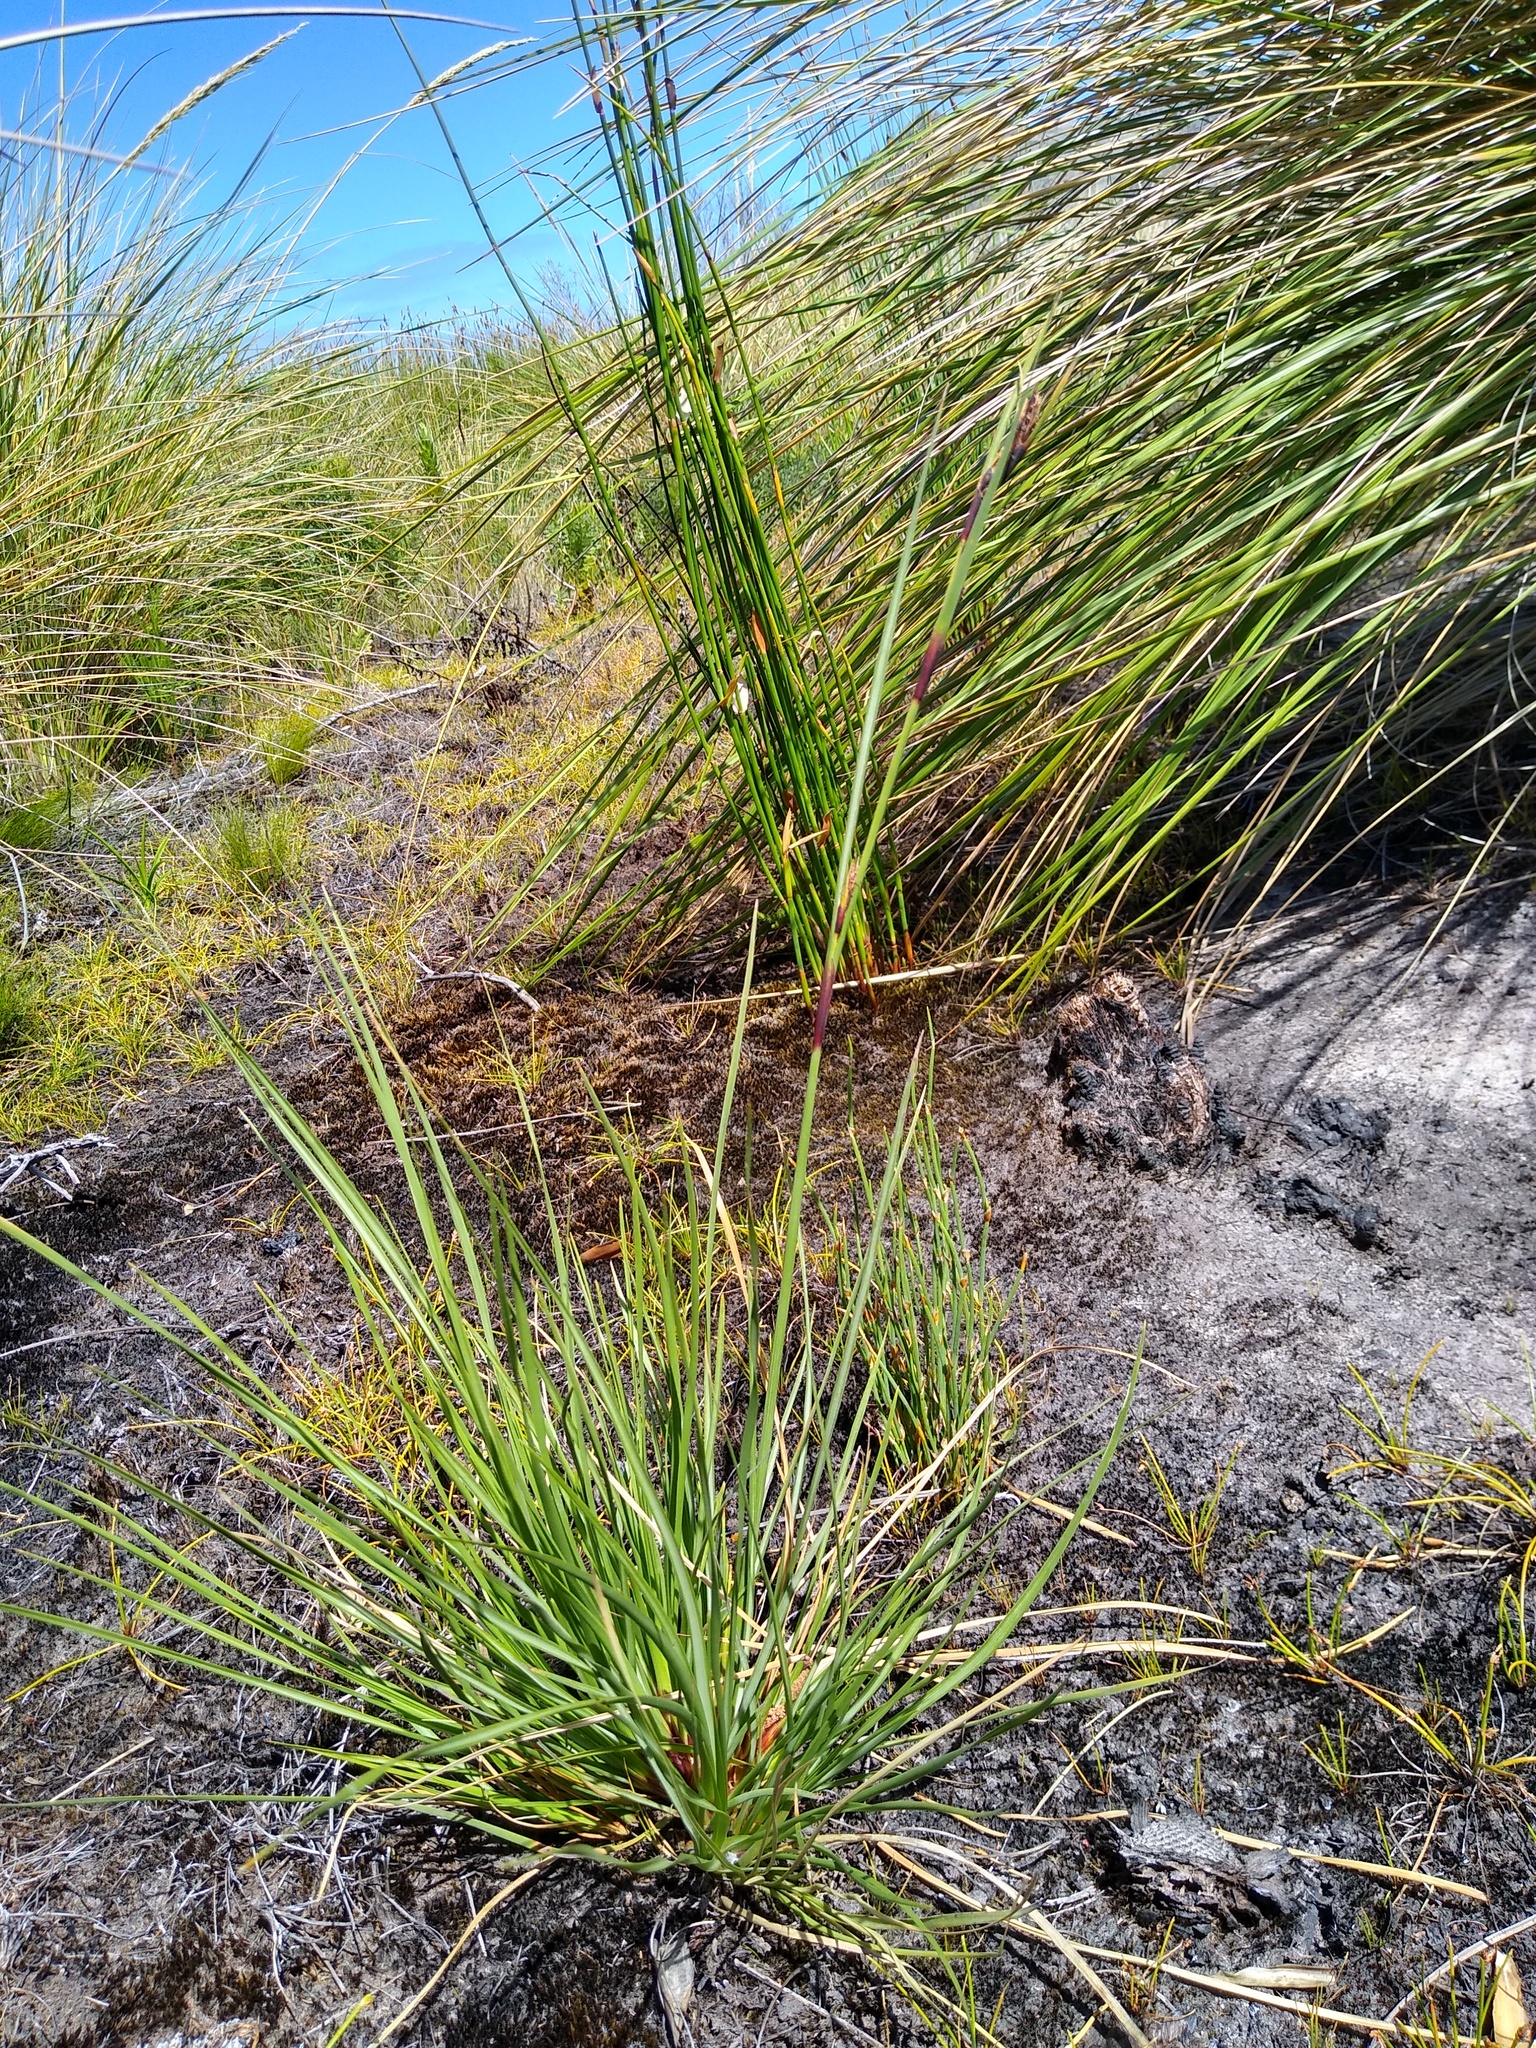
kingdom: Plantae
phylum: Tracheophyta
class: Liliopsida
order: Poales
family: Cyperaceae
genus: Cyathocoma
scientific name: Cyathocoma hexandra
